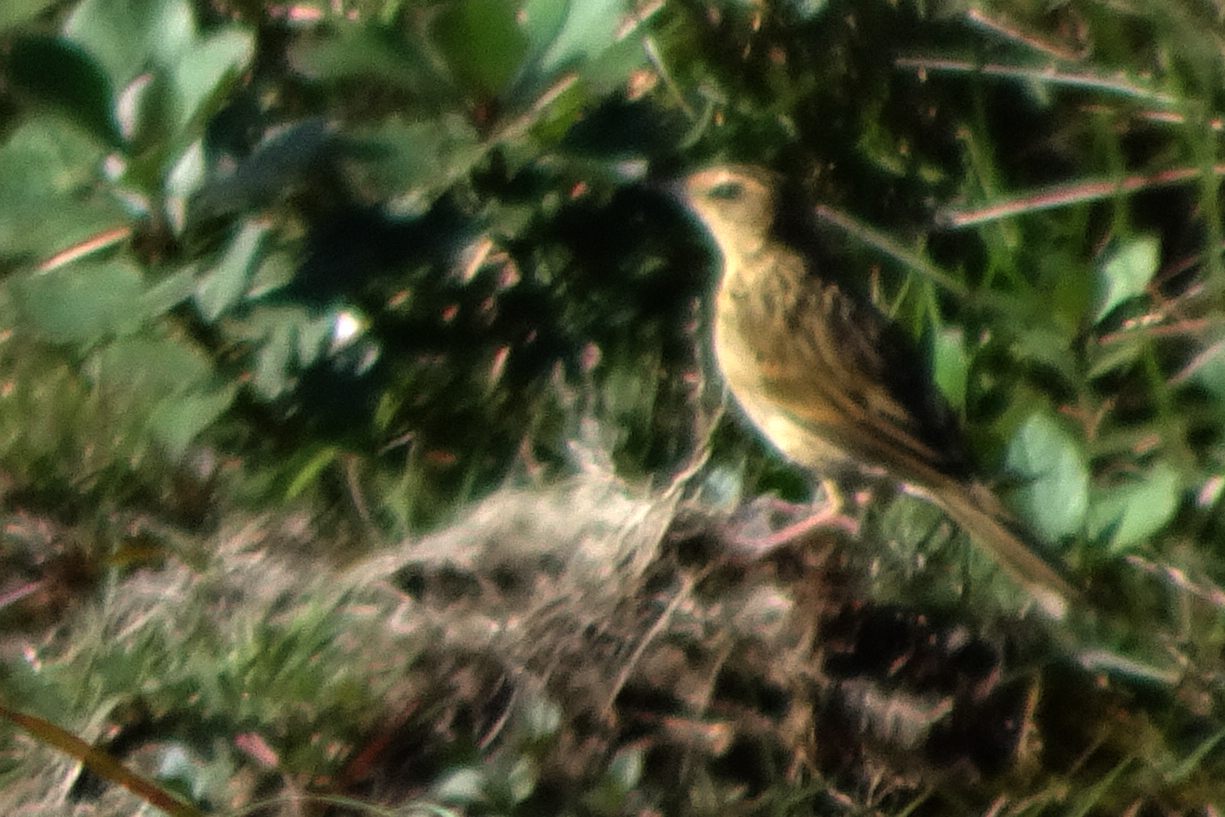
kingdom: Animalia
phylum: Chordata
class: Aves
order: Passeriformes
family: Motacillidae
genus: Anthus
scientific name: Anthus nilghiriensis
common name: Nilgiri pipit
